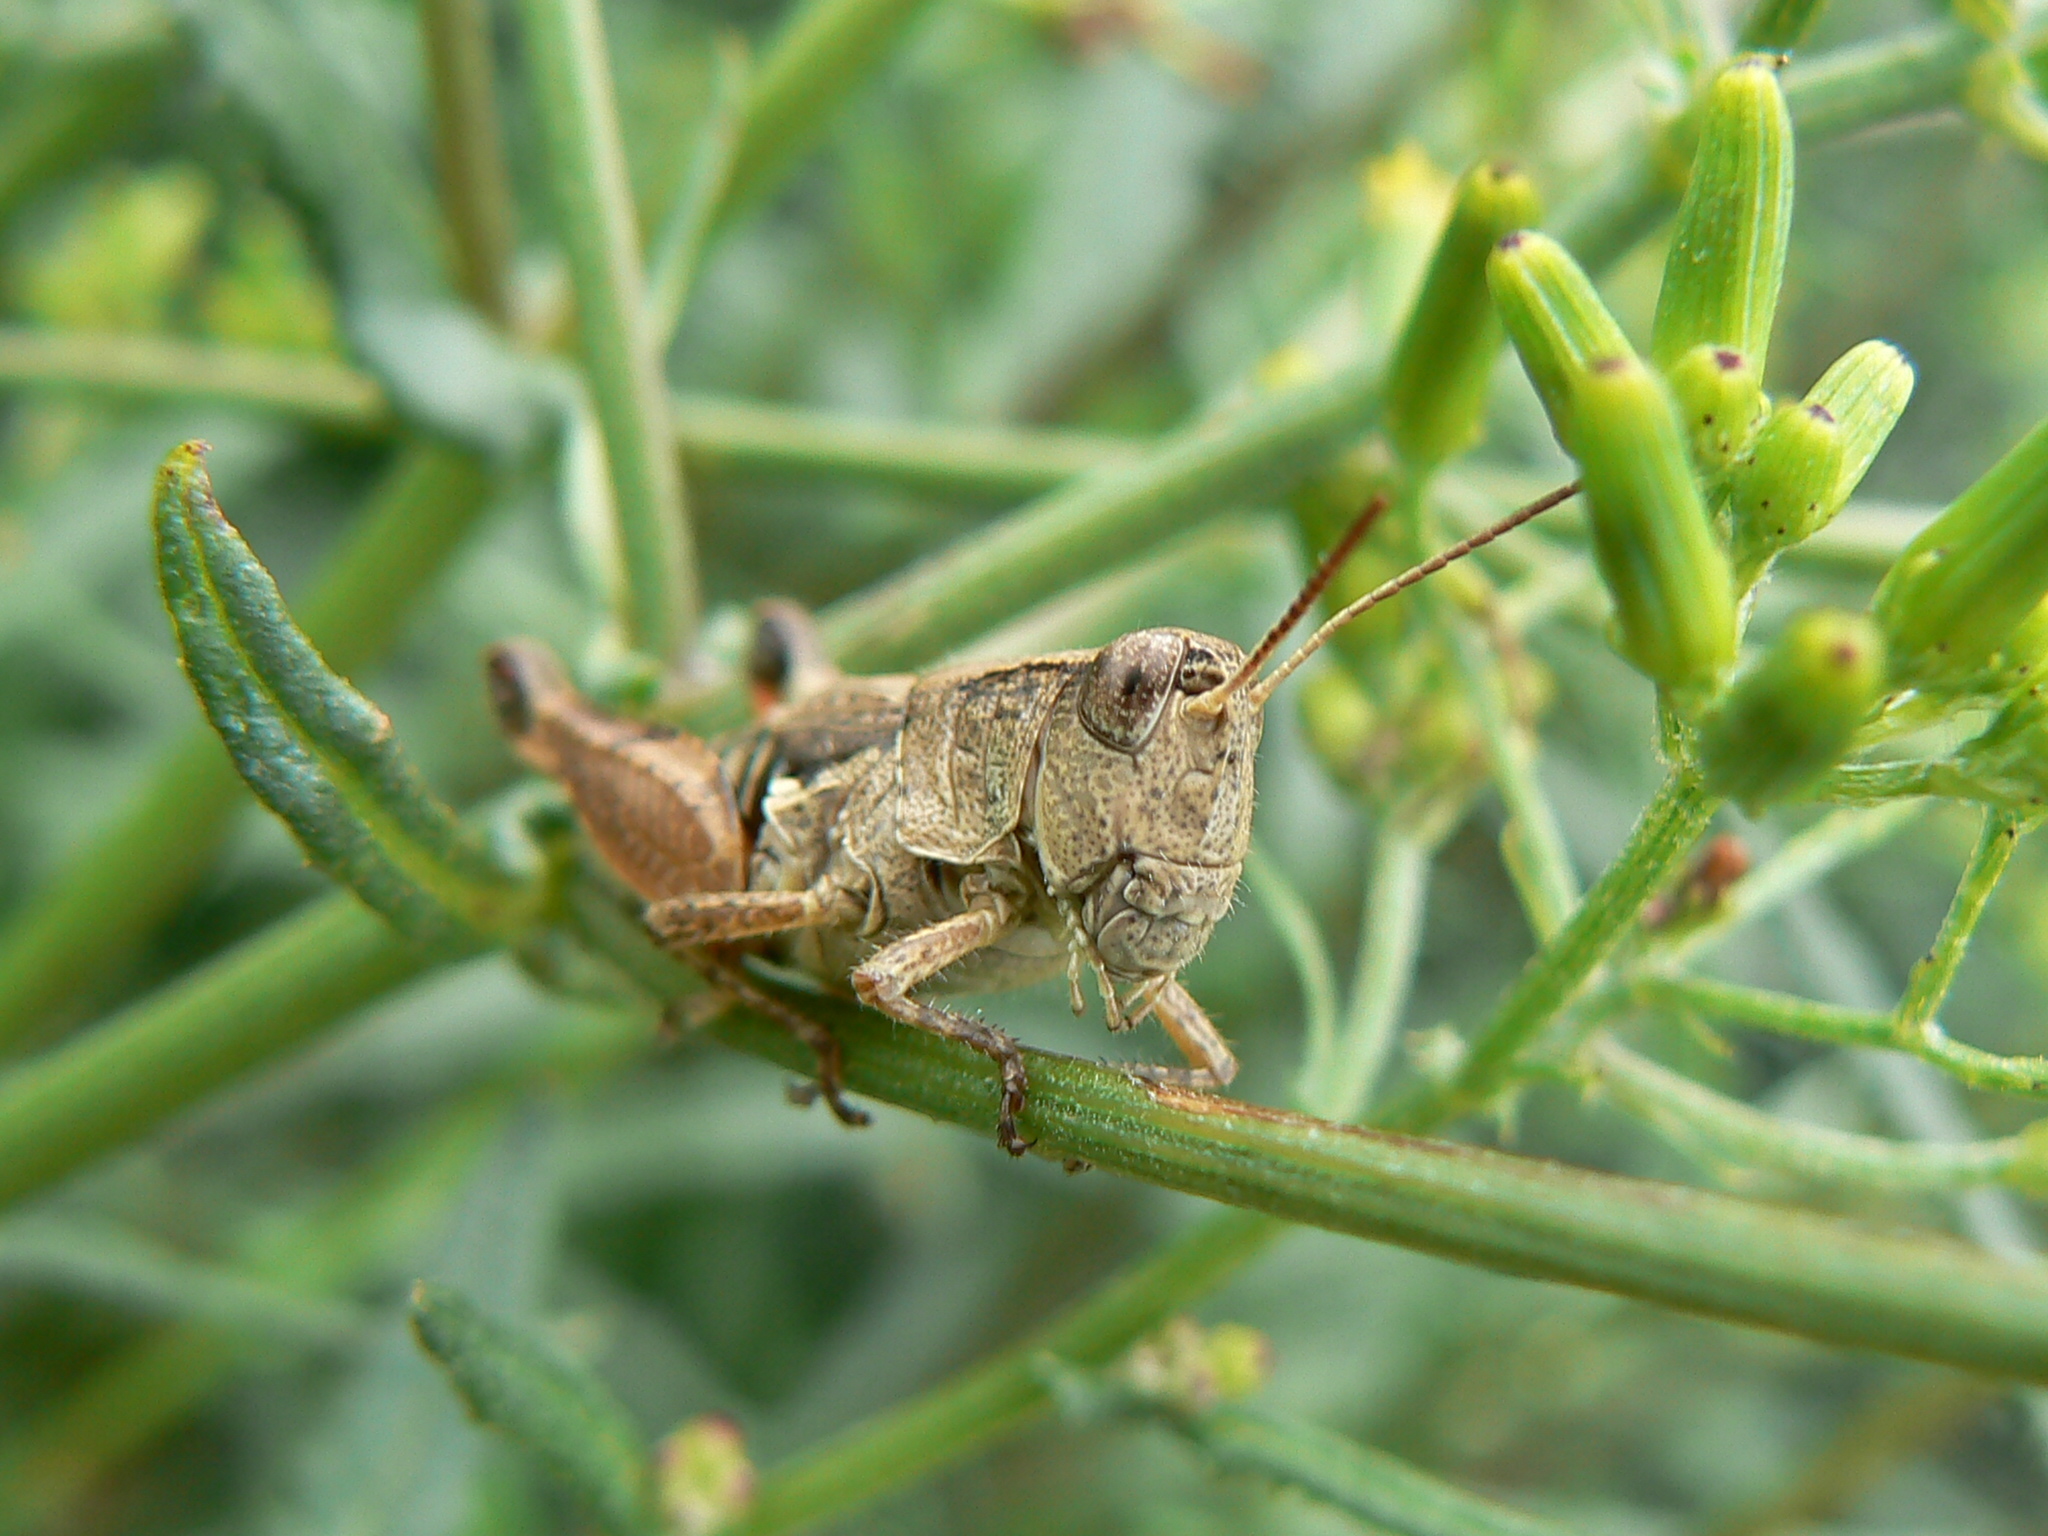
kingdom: Animalia
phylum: Arthropoda
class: Insecta
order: Orthoptera
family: Acrididae
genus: Phaulacridium
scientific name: Phaulacridium vittatum
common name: Wingless grasshopper
